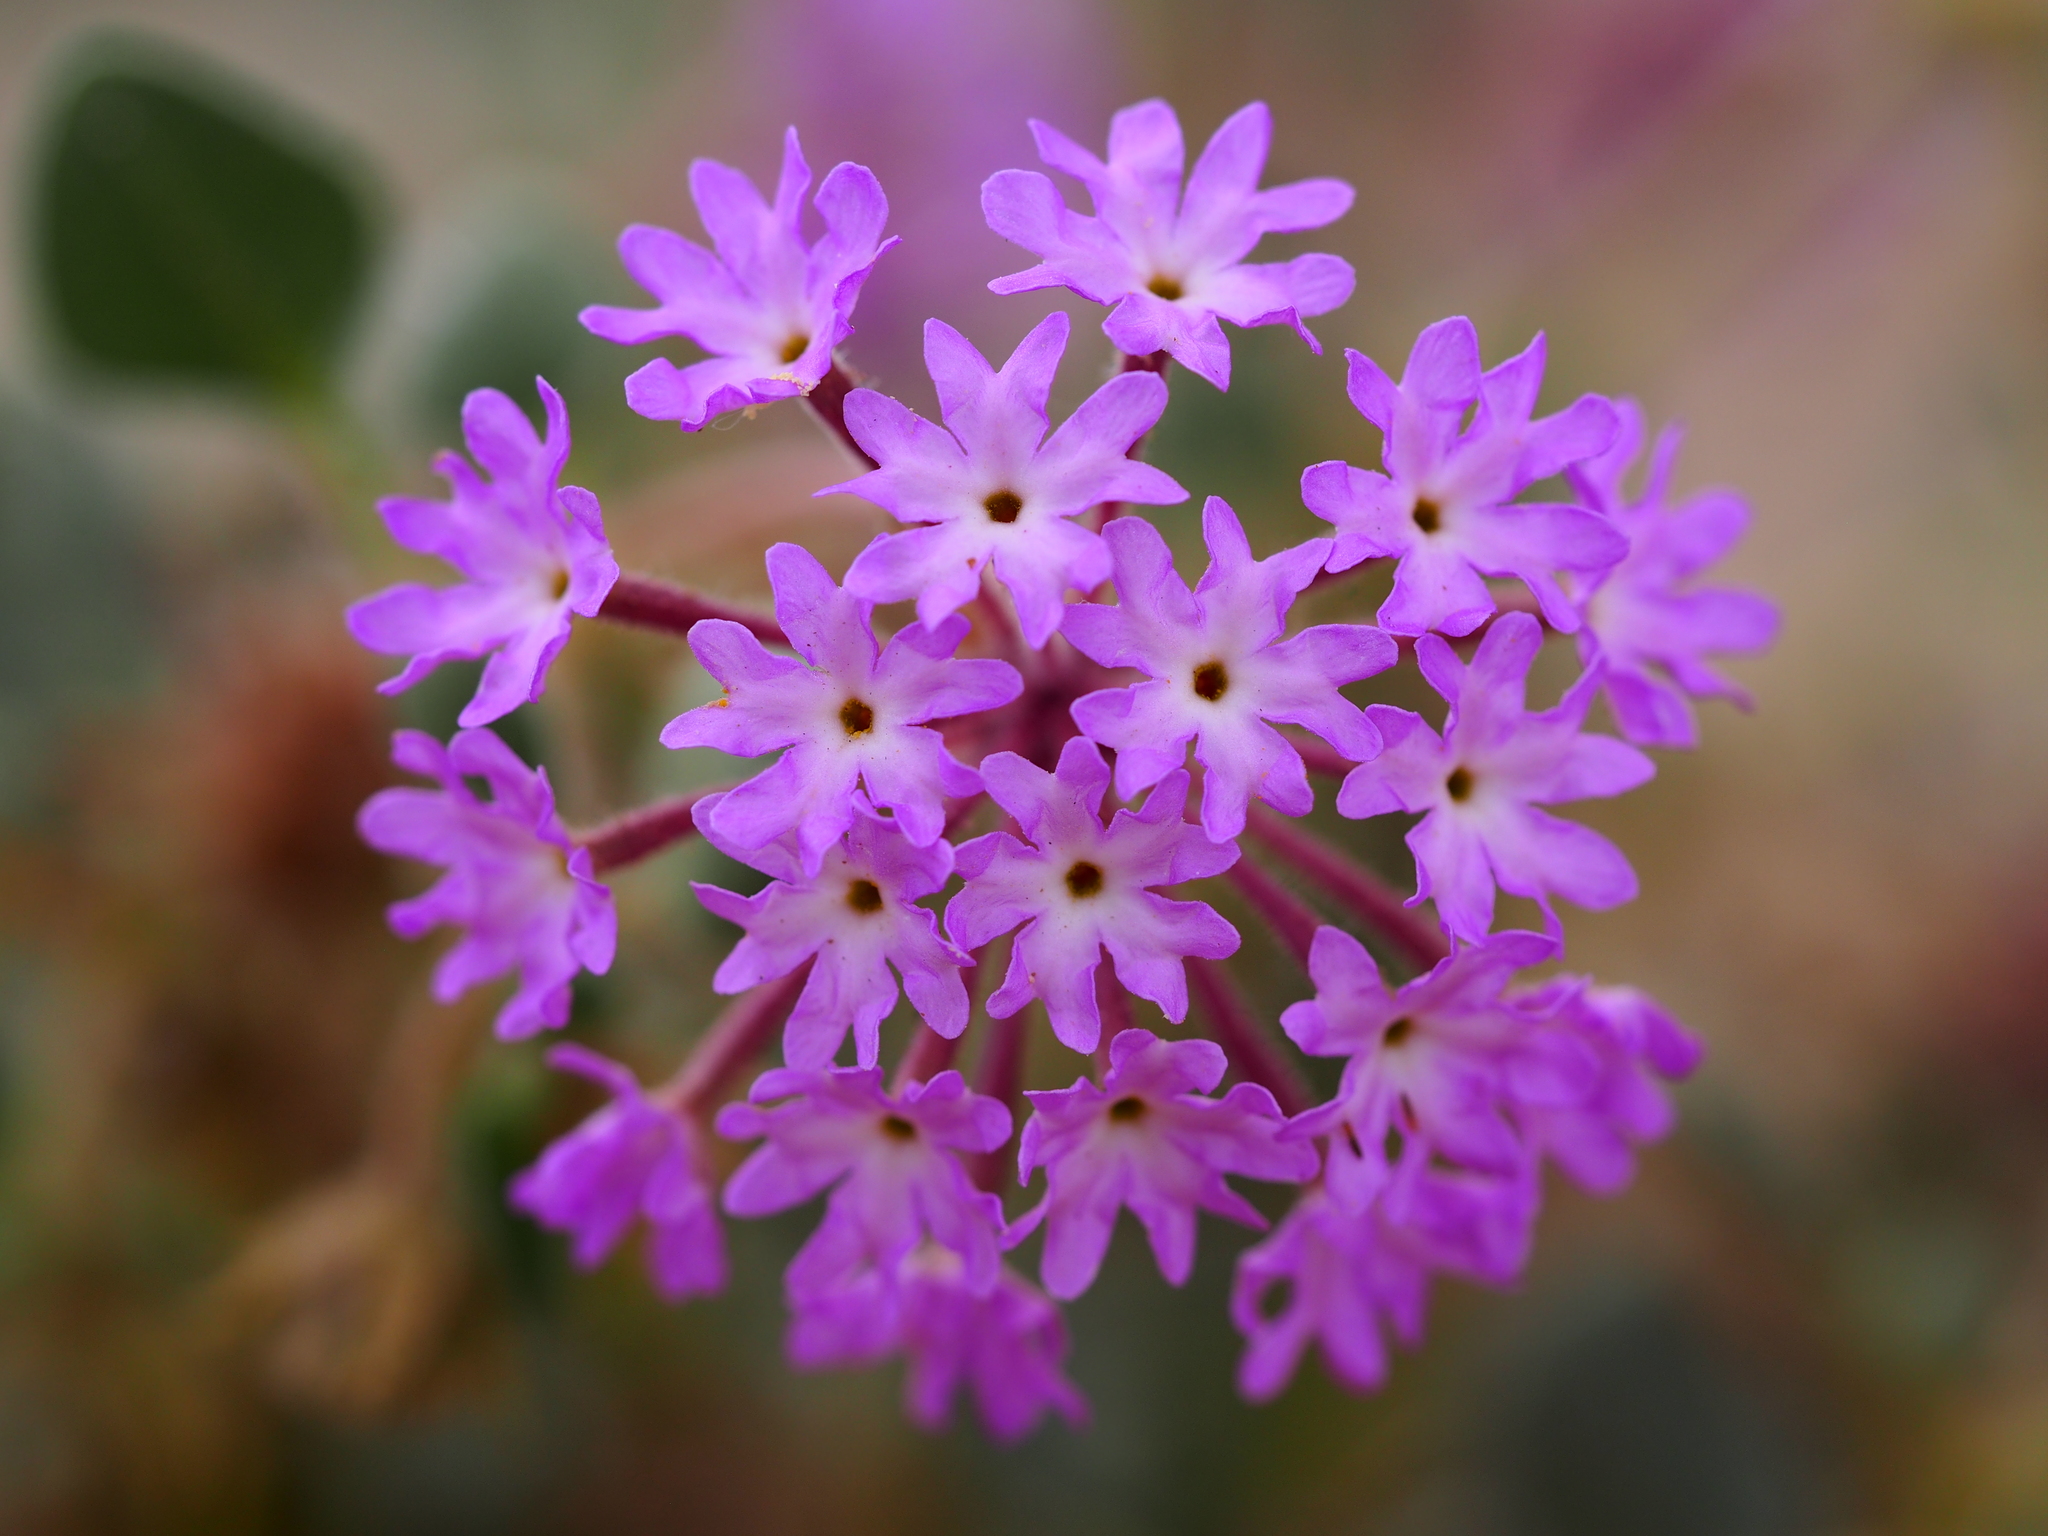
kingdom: Plantae
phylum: Tracheophyta
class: Magnoliopsida
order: Caryophyllales
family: Nyctaginaceae
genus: Abronia
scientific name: Abronia villosa
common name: Desert sand-verbena
